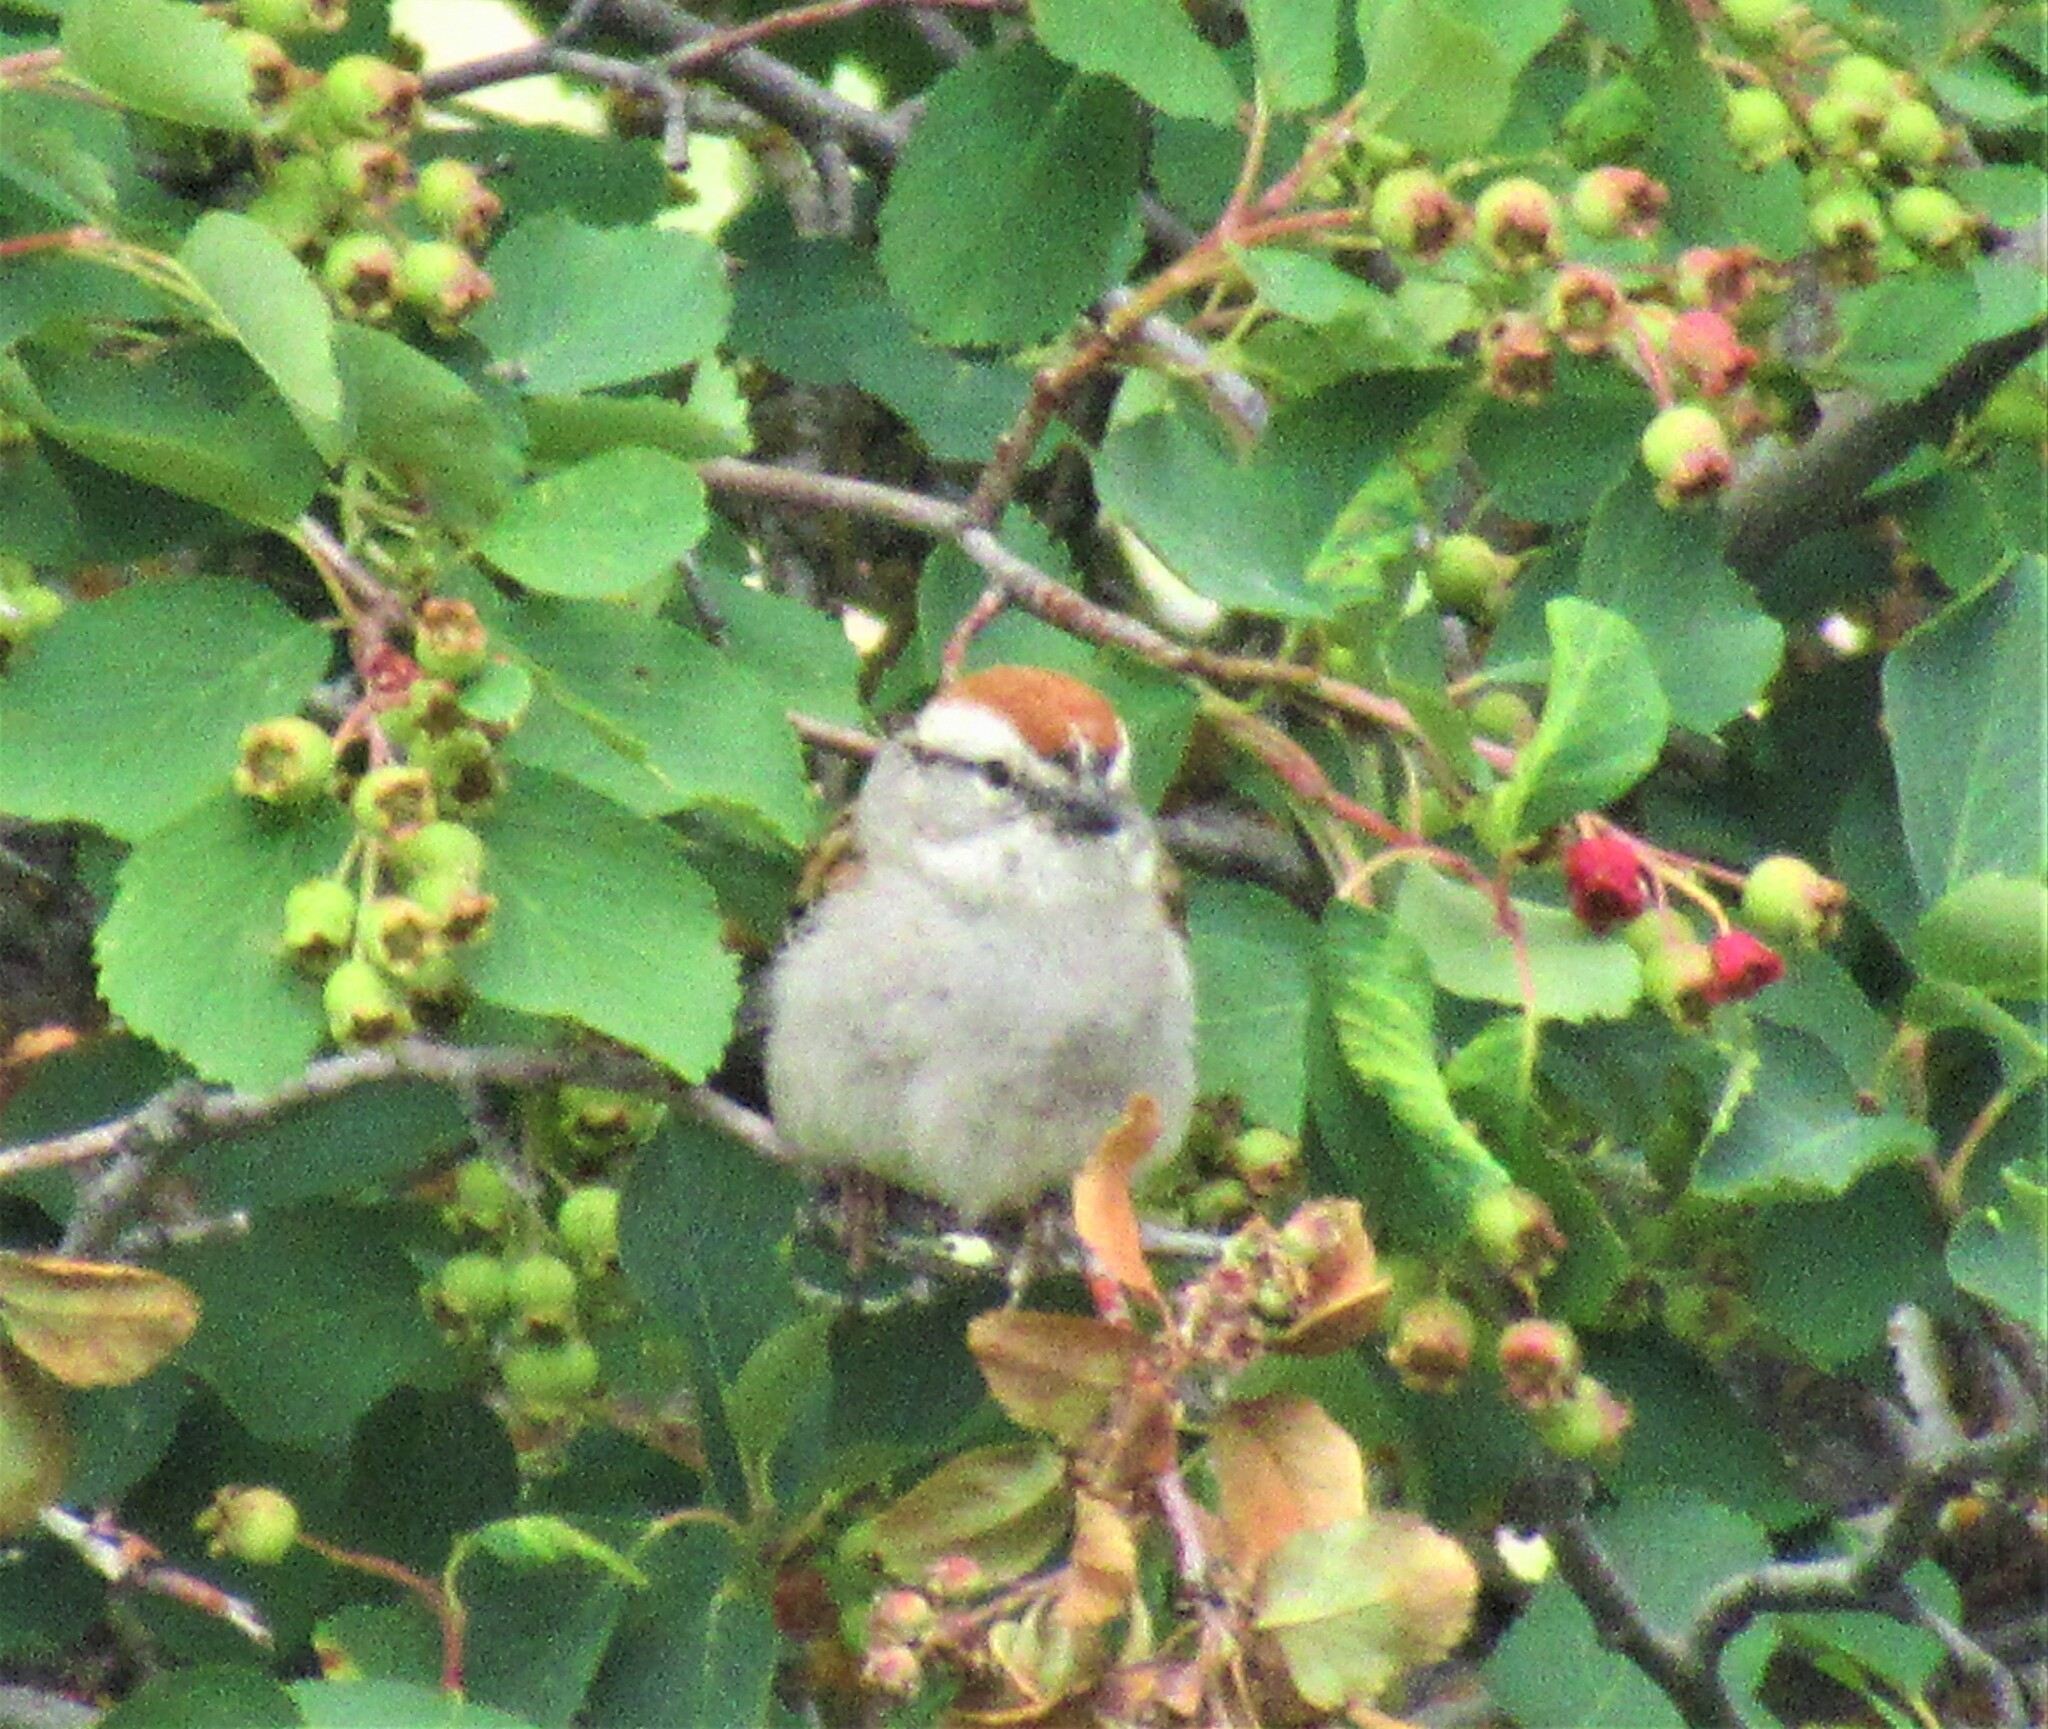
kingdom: Animalia
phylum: Chordata
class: Aves
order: Passeriformes
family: Passerellidae
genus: Spizella
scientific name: Spizella passerina
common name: Chipping sparrow
